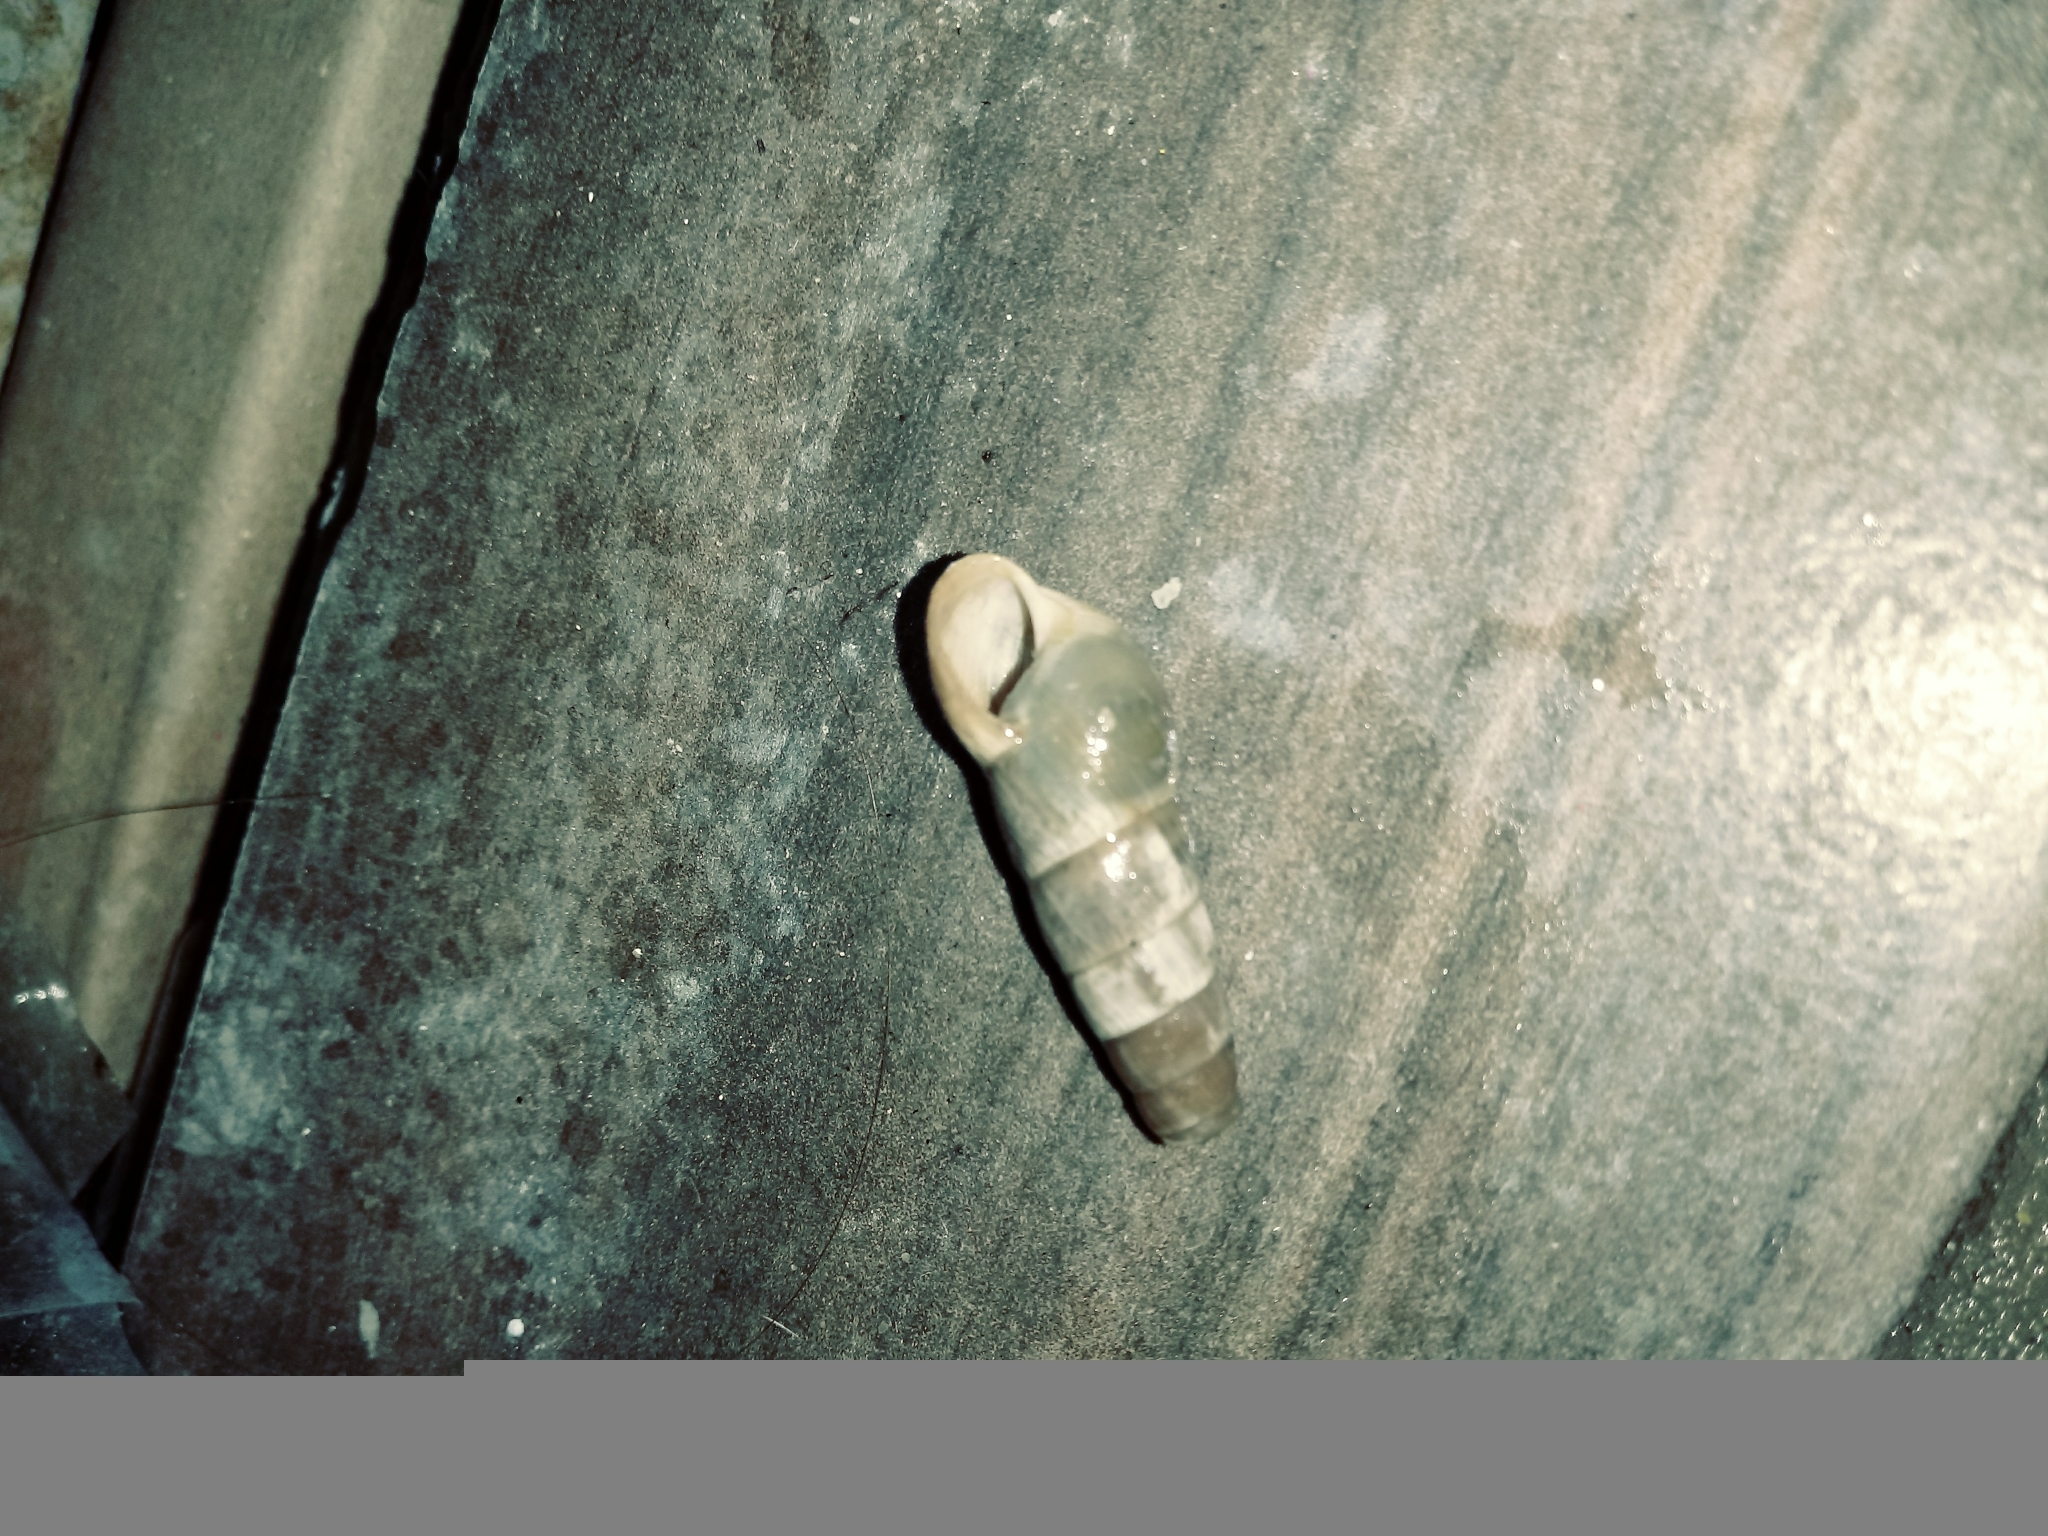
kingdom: Animalia
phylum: Mollusca
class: Gastropoda
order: Stylommatophora
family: Achatinidae
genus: Rumina
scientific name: Rumina decollata
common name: Decollate snail
